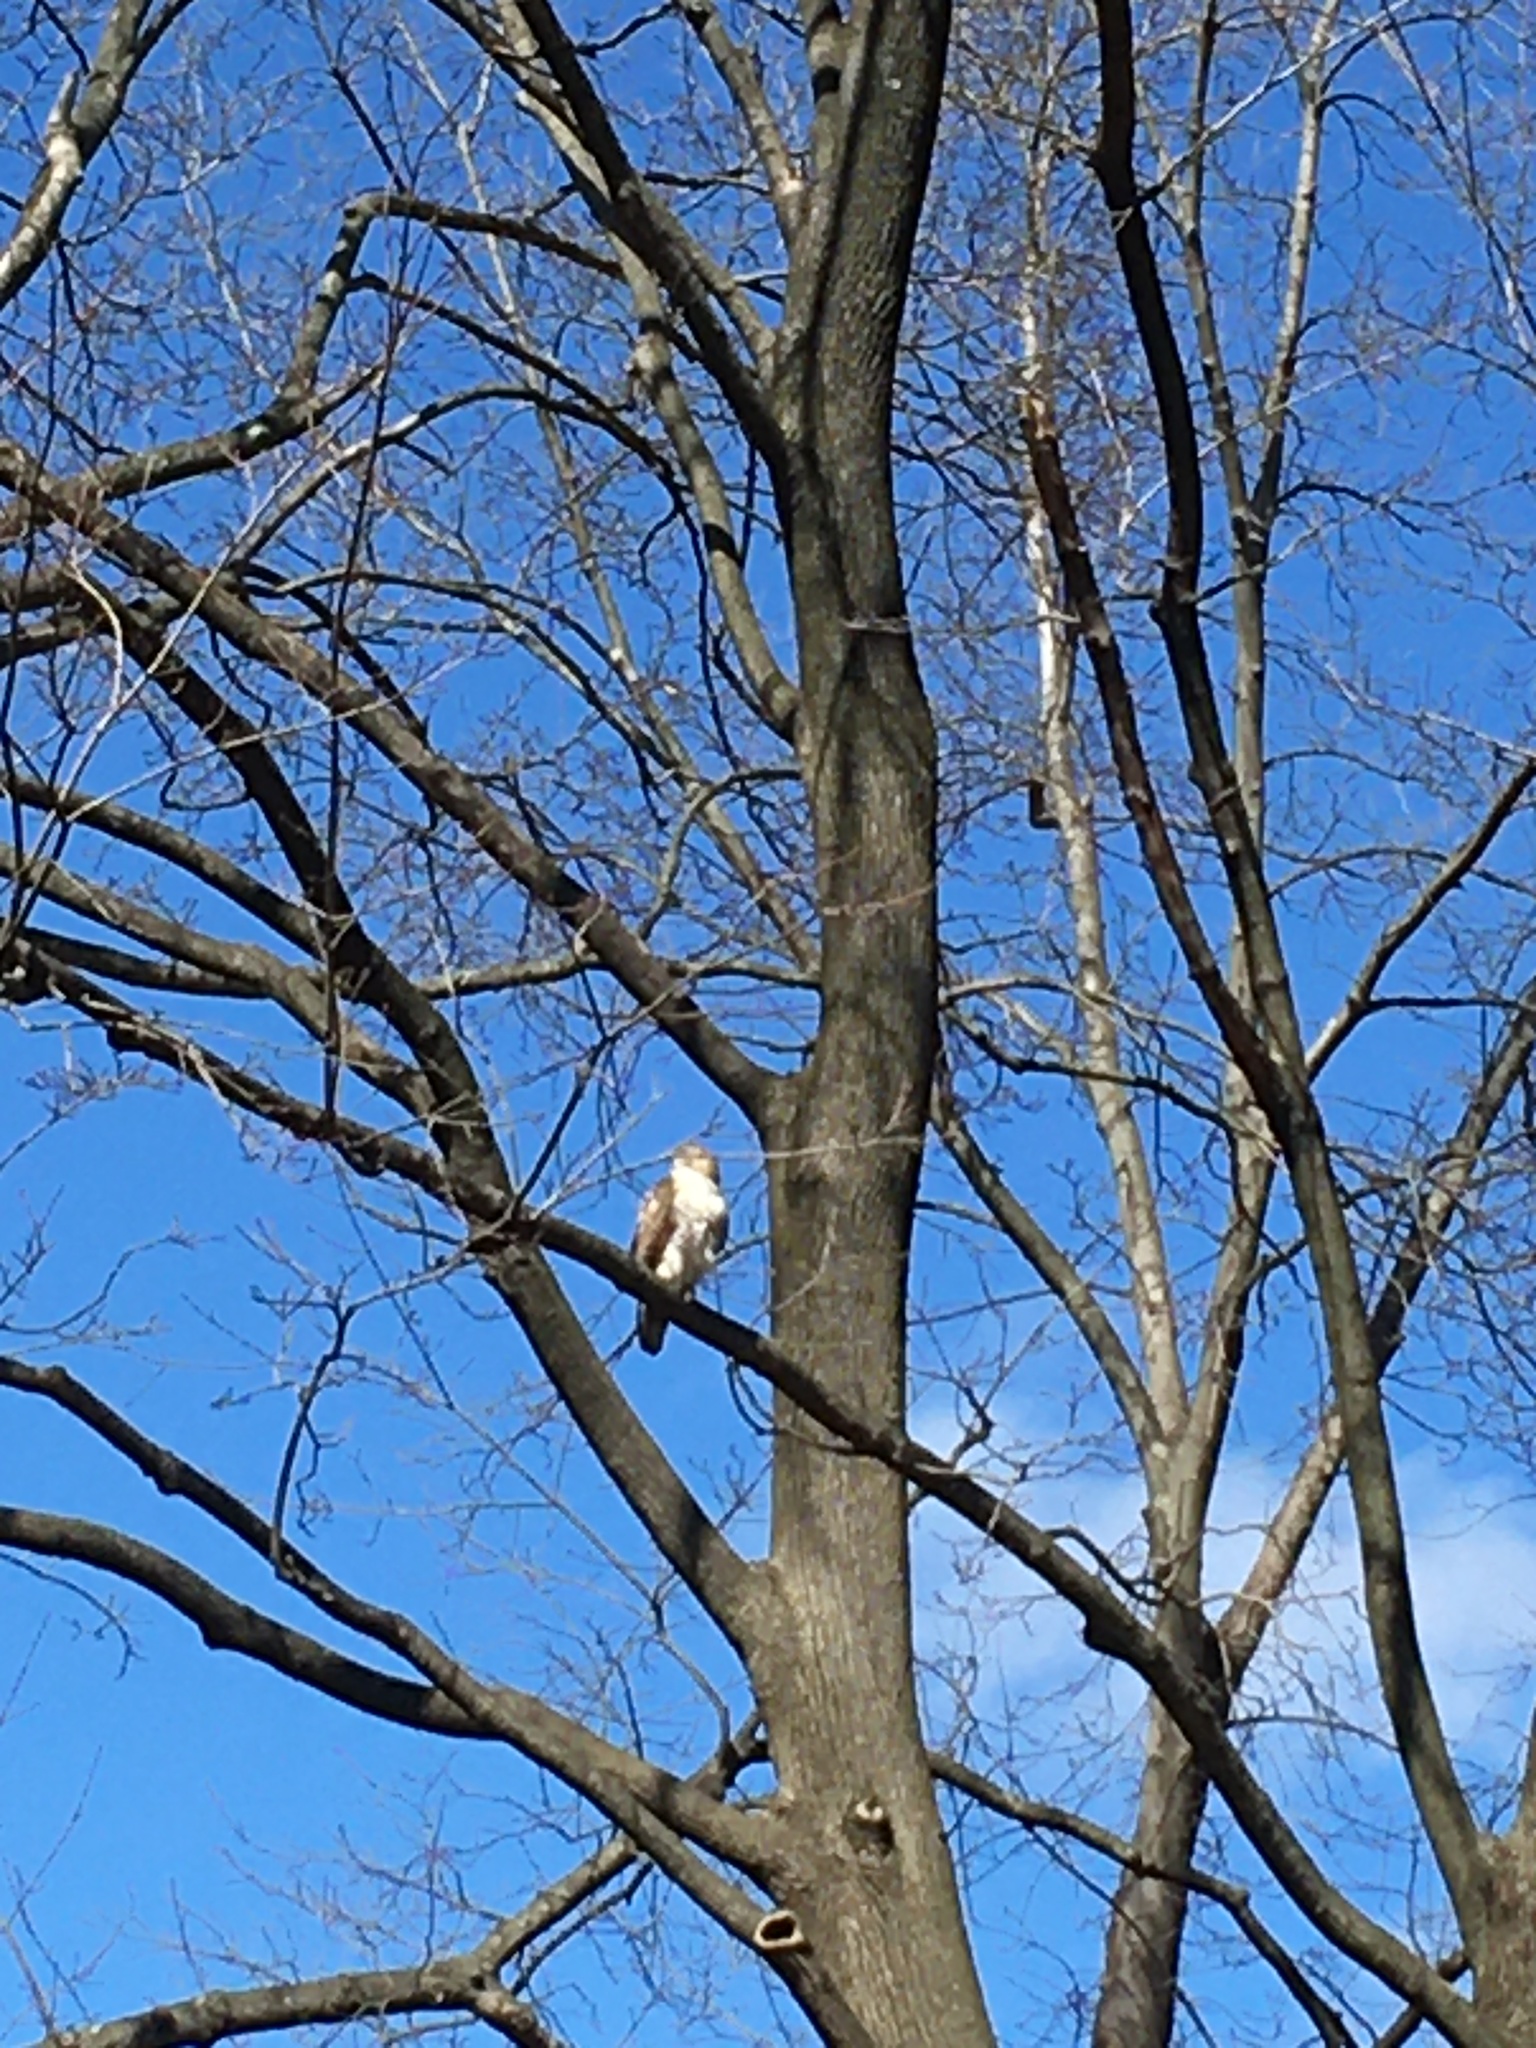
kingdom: Animalia
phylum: Chordata
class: Aves
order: Accipitriformes
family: Accipitridae
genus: Buteo
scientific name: Buteo jamaicensis
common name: Red-tailed hawk
